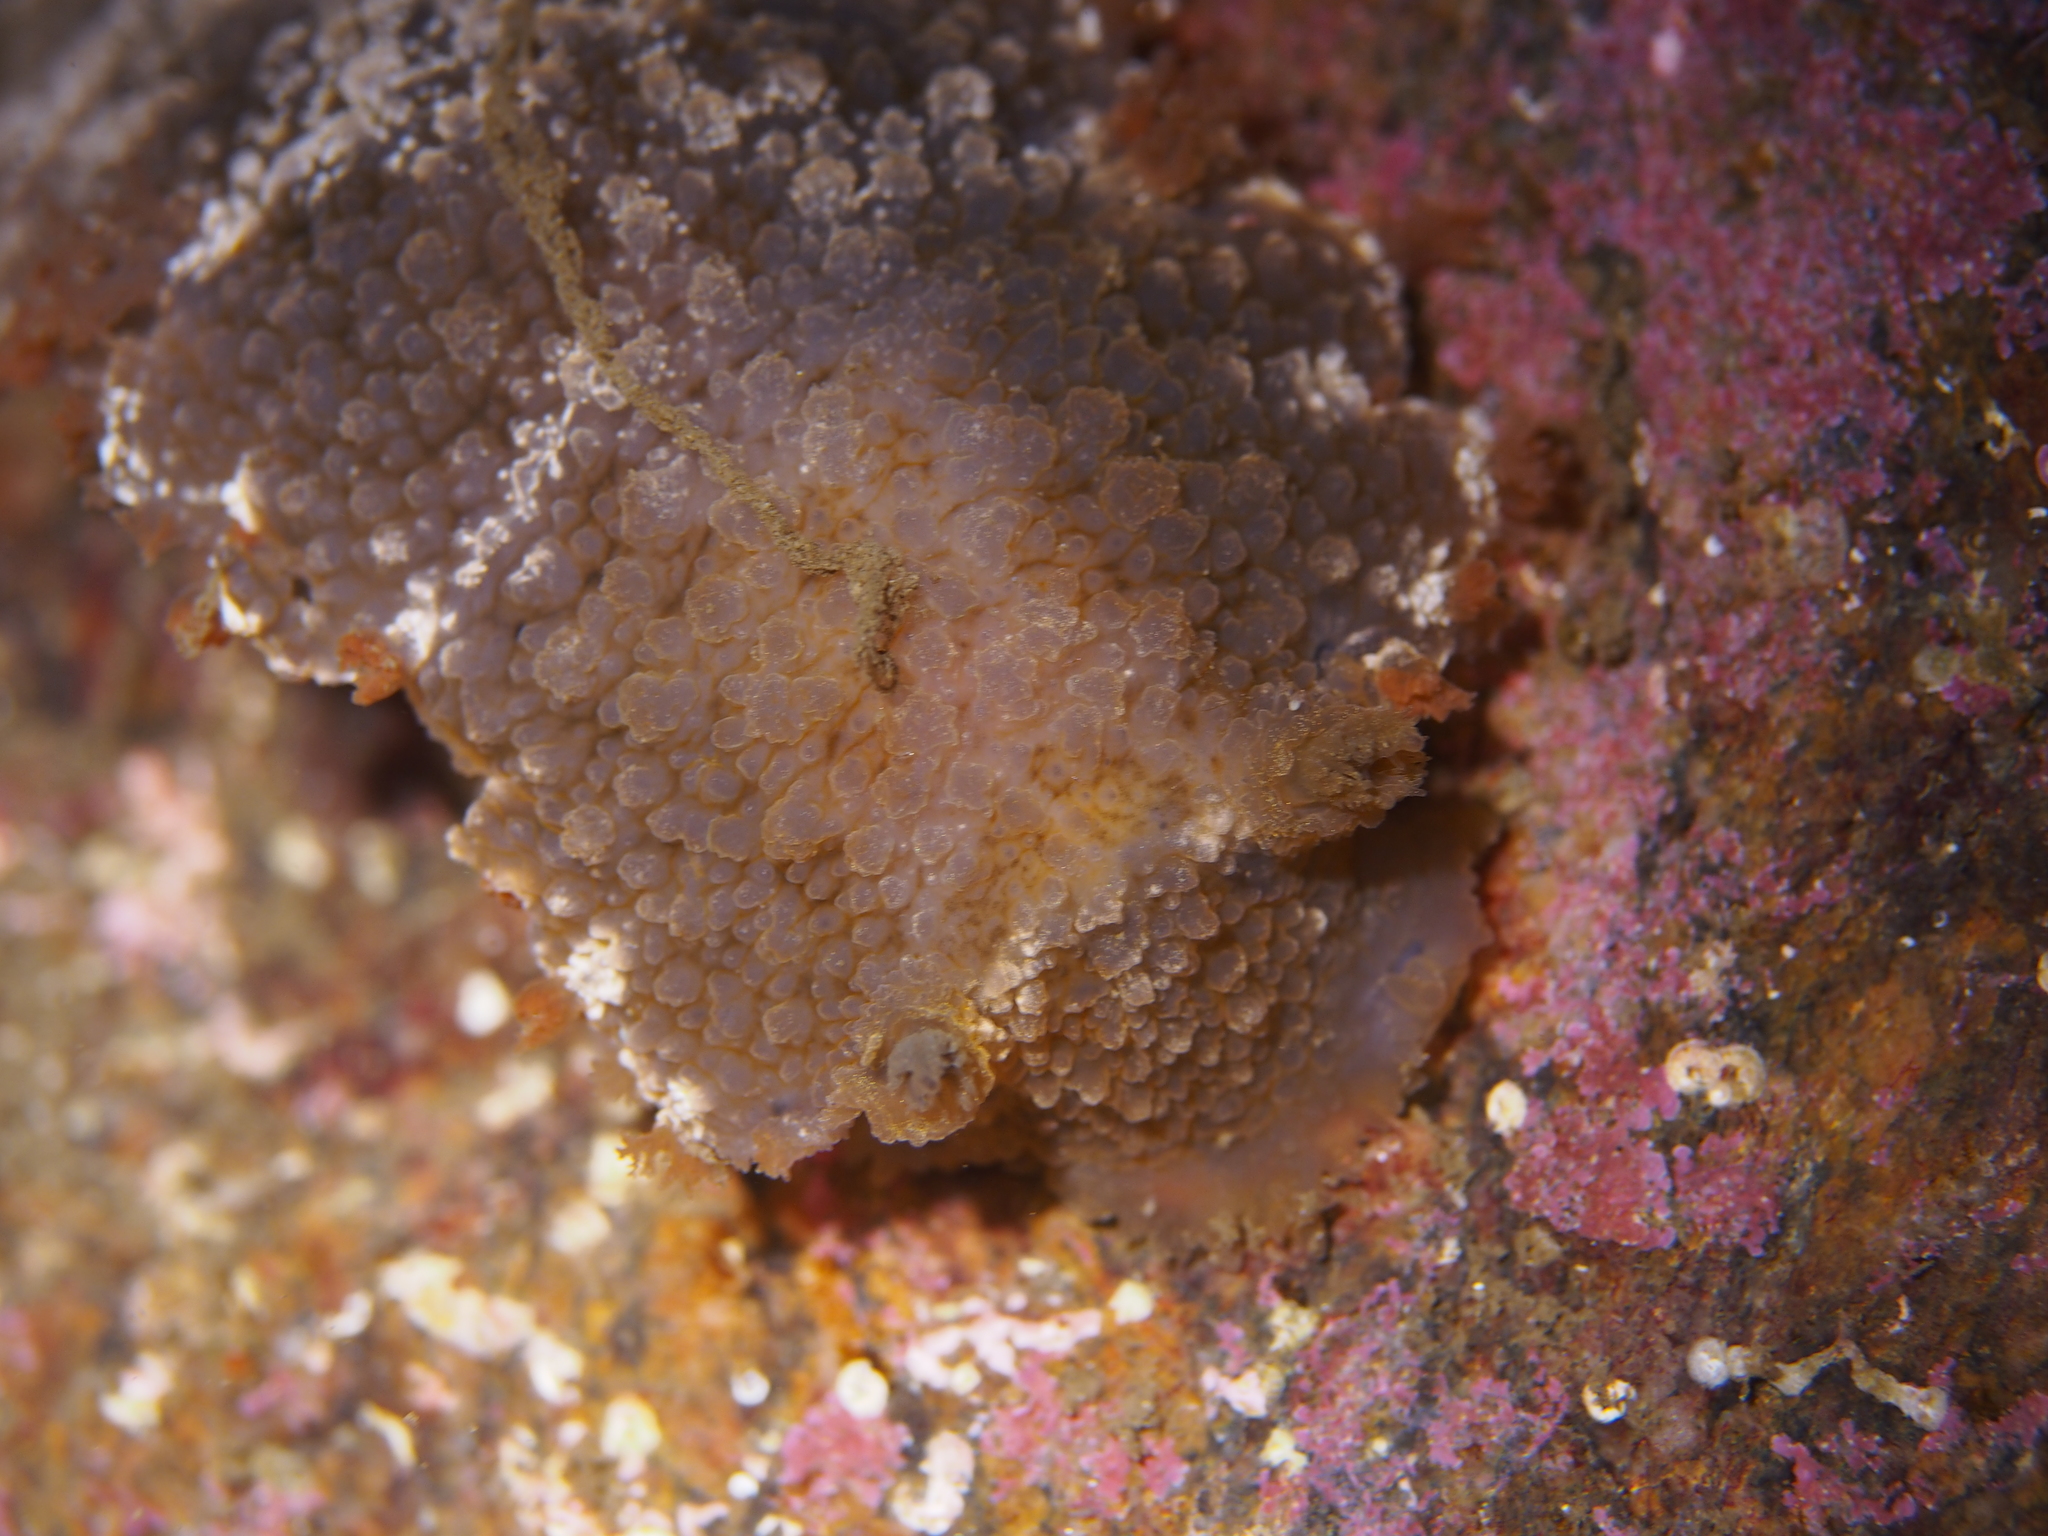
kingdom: Animalia
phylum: Mollusca
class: Gastropoda
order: Nudibranchia
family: Tritoniidae
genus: Tritonia
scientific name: Tritonia hombergii
